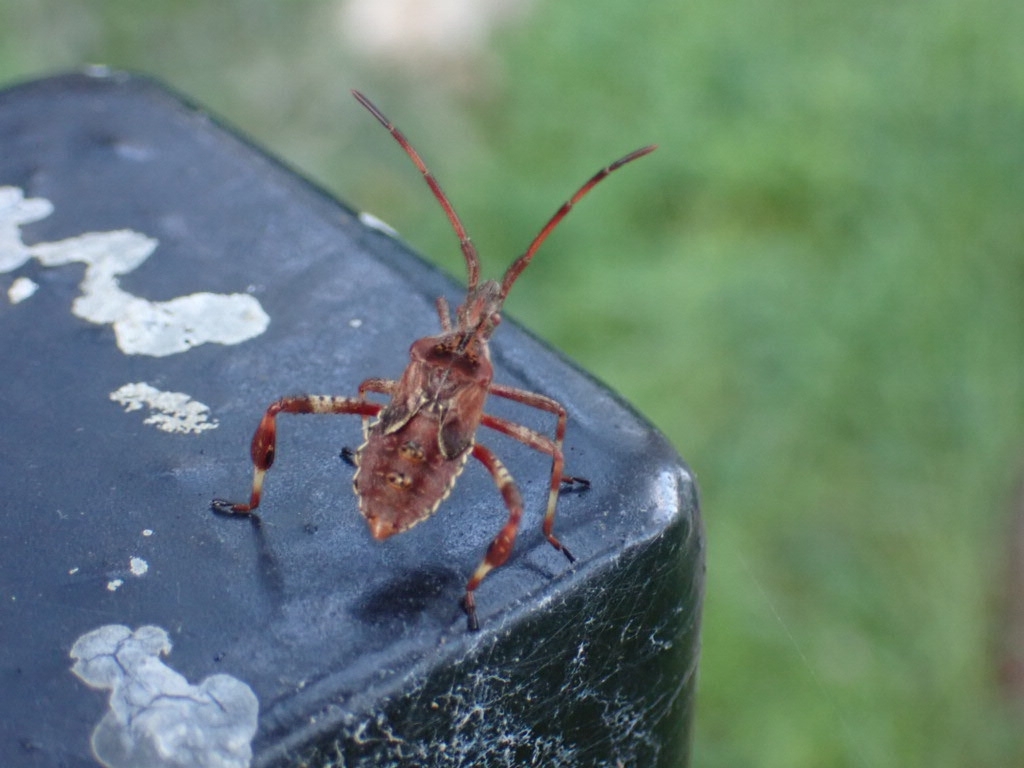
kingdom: Animalia
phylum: Arthropoda
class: Insecta
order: Hemiptera
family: Coreidae
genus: Leptoglossus
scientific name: Leptoglossus occidentalis
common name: Western conifer-seed bug
